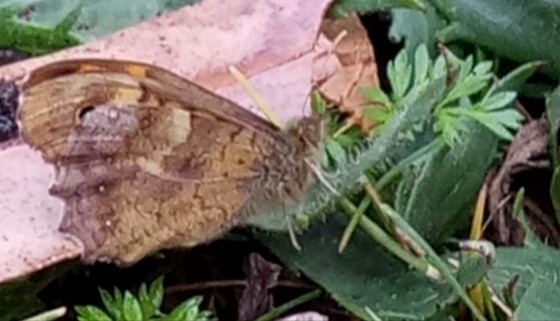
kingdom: Animalia
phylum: Arthropoda
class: Insecta
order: Lepidoptera
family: Nymphalidae
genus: Pararge
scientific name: Pararge aegeria
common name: Speckled wood
